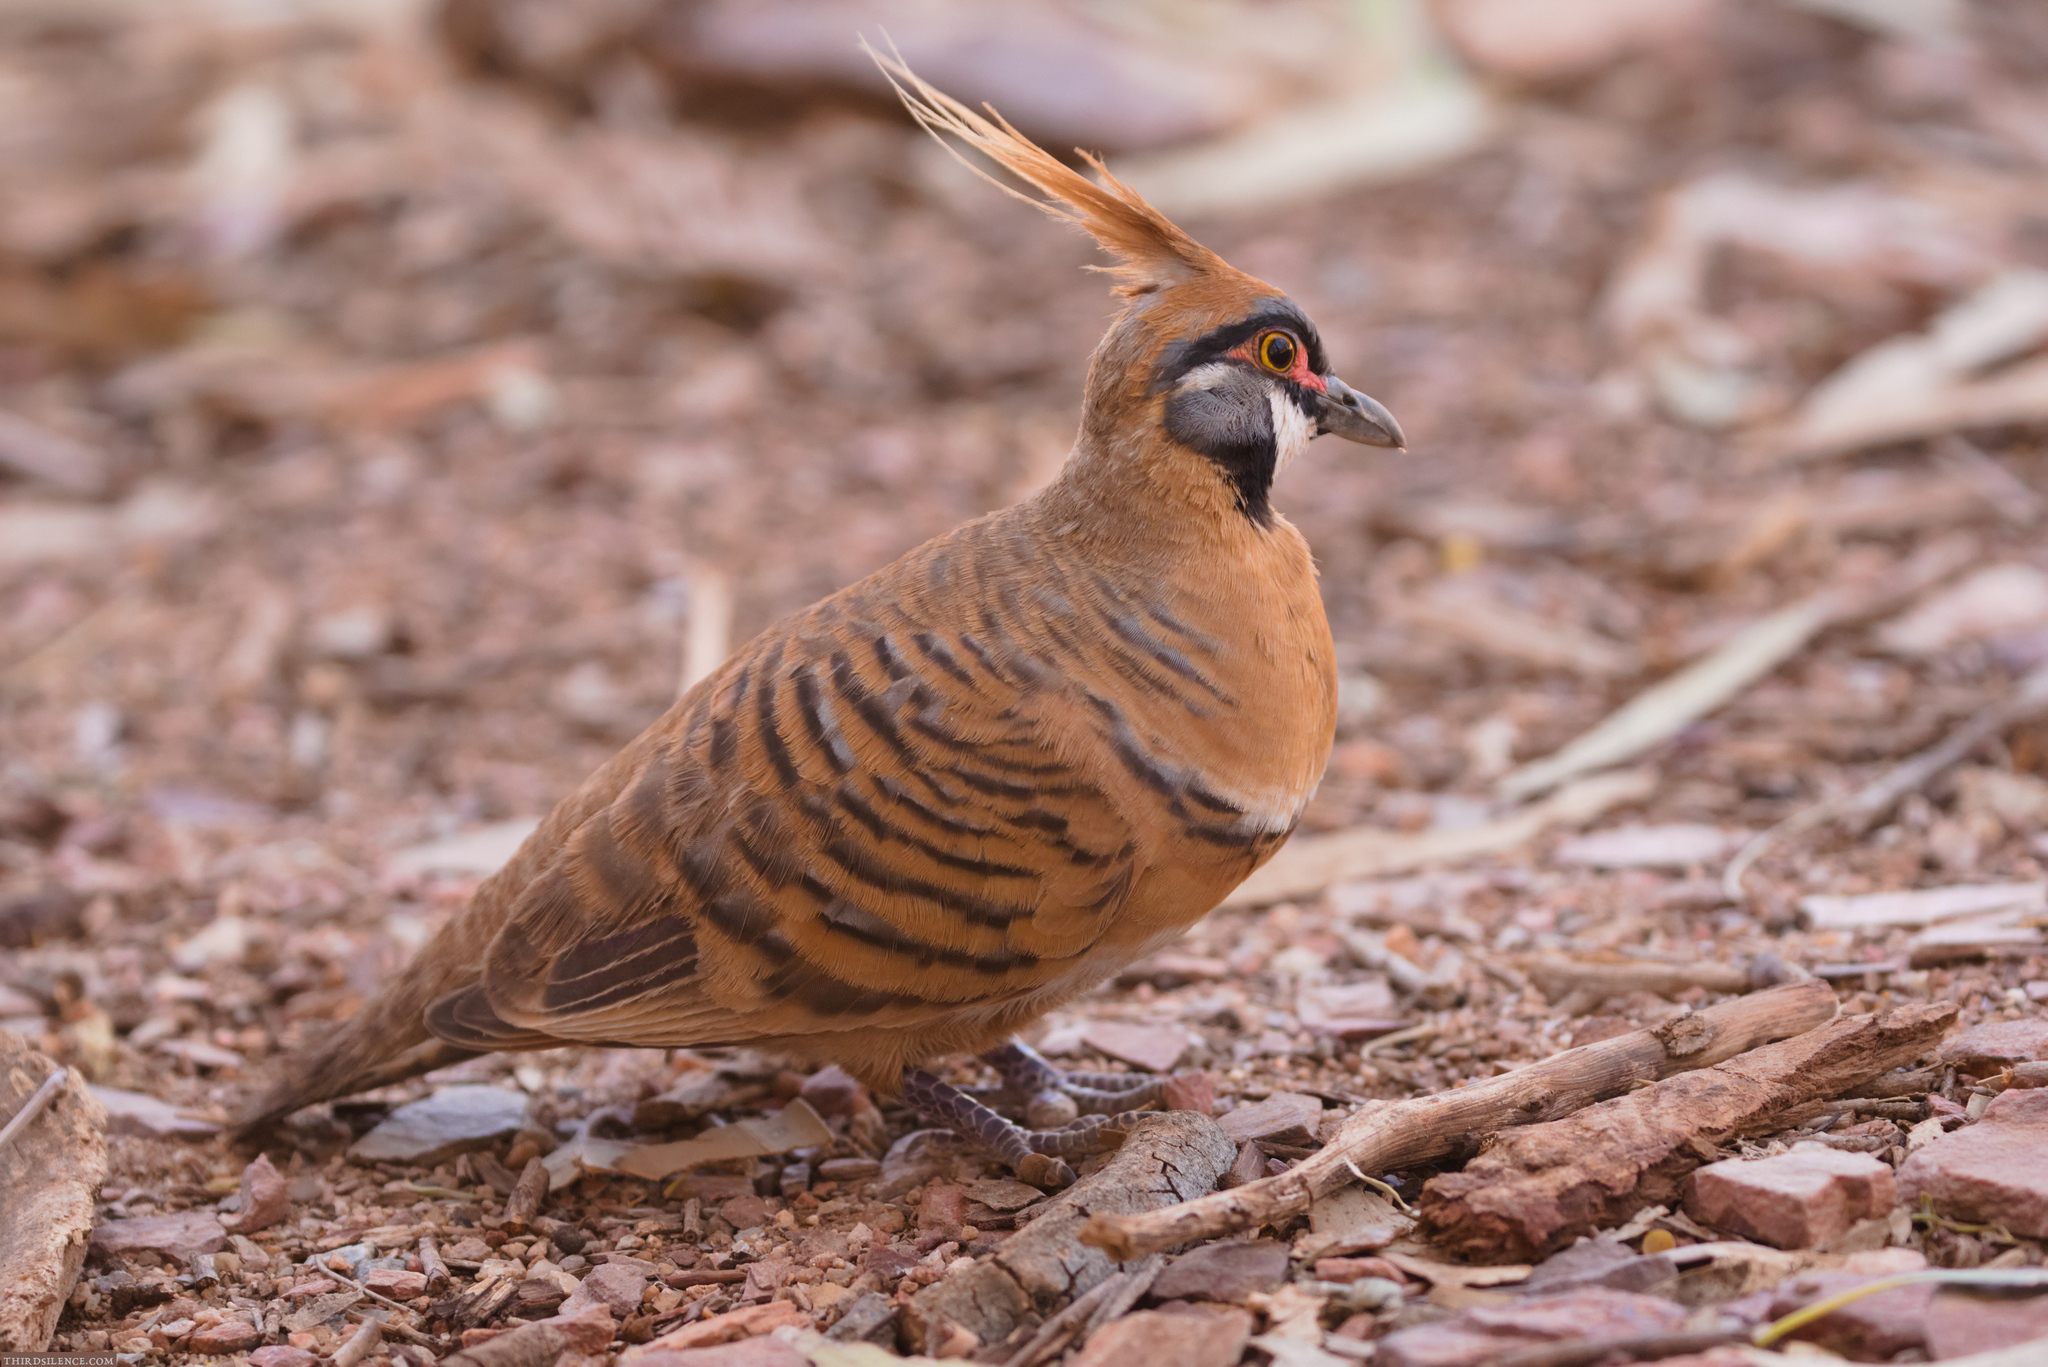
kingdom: Animalia
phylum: Chordata
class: Aves
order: Columbiformes
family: Columbidae
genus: Geophaps
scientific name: Geophaps plumifera
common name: Spinifex pigeon
